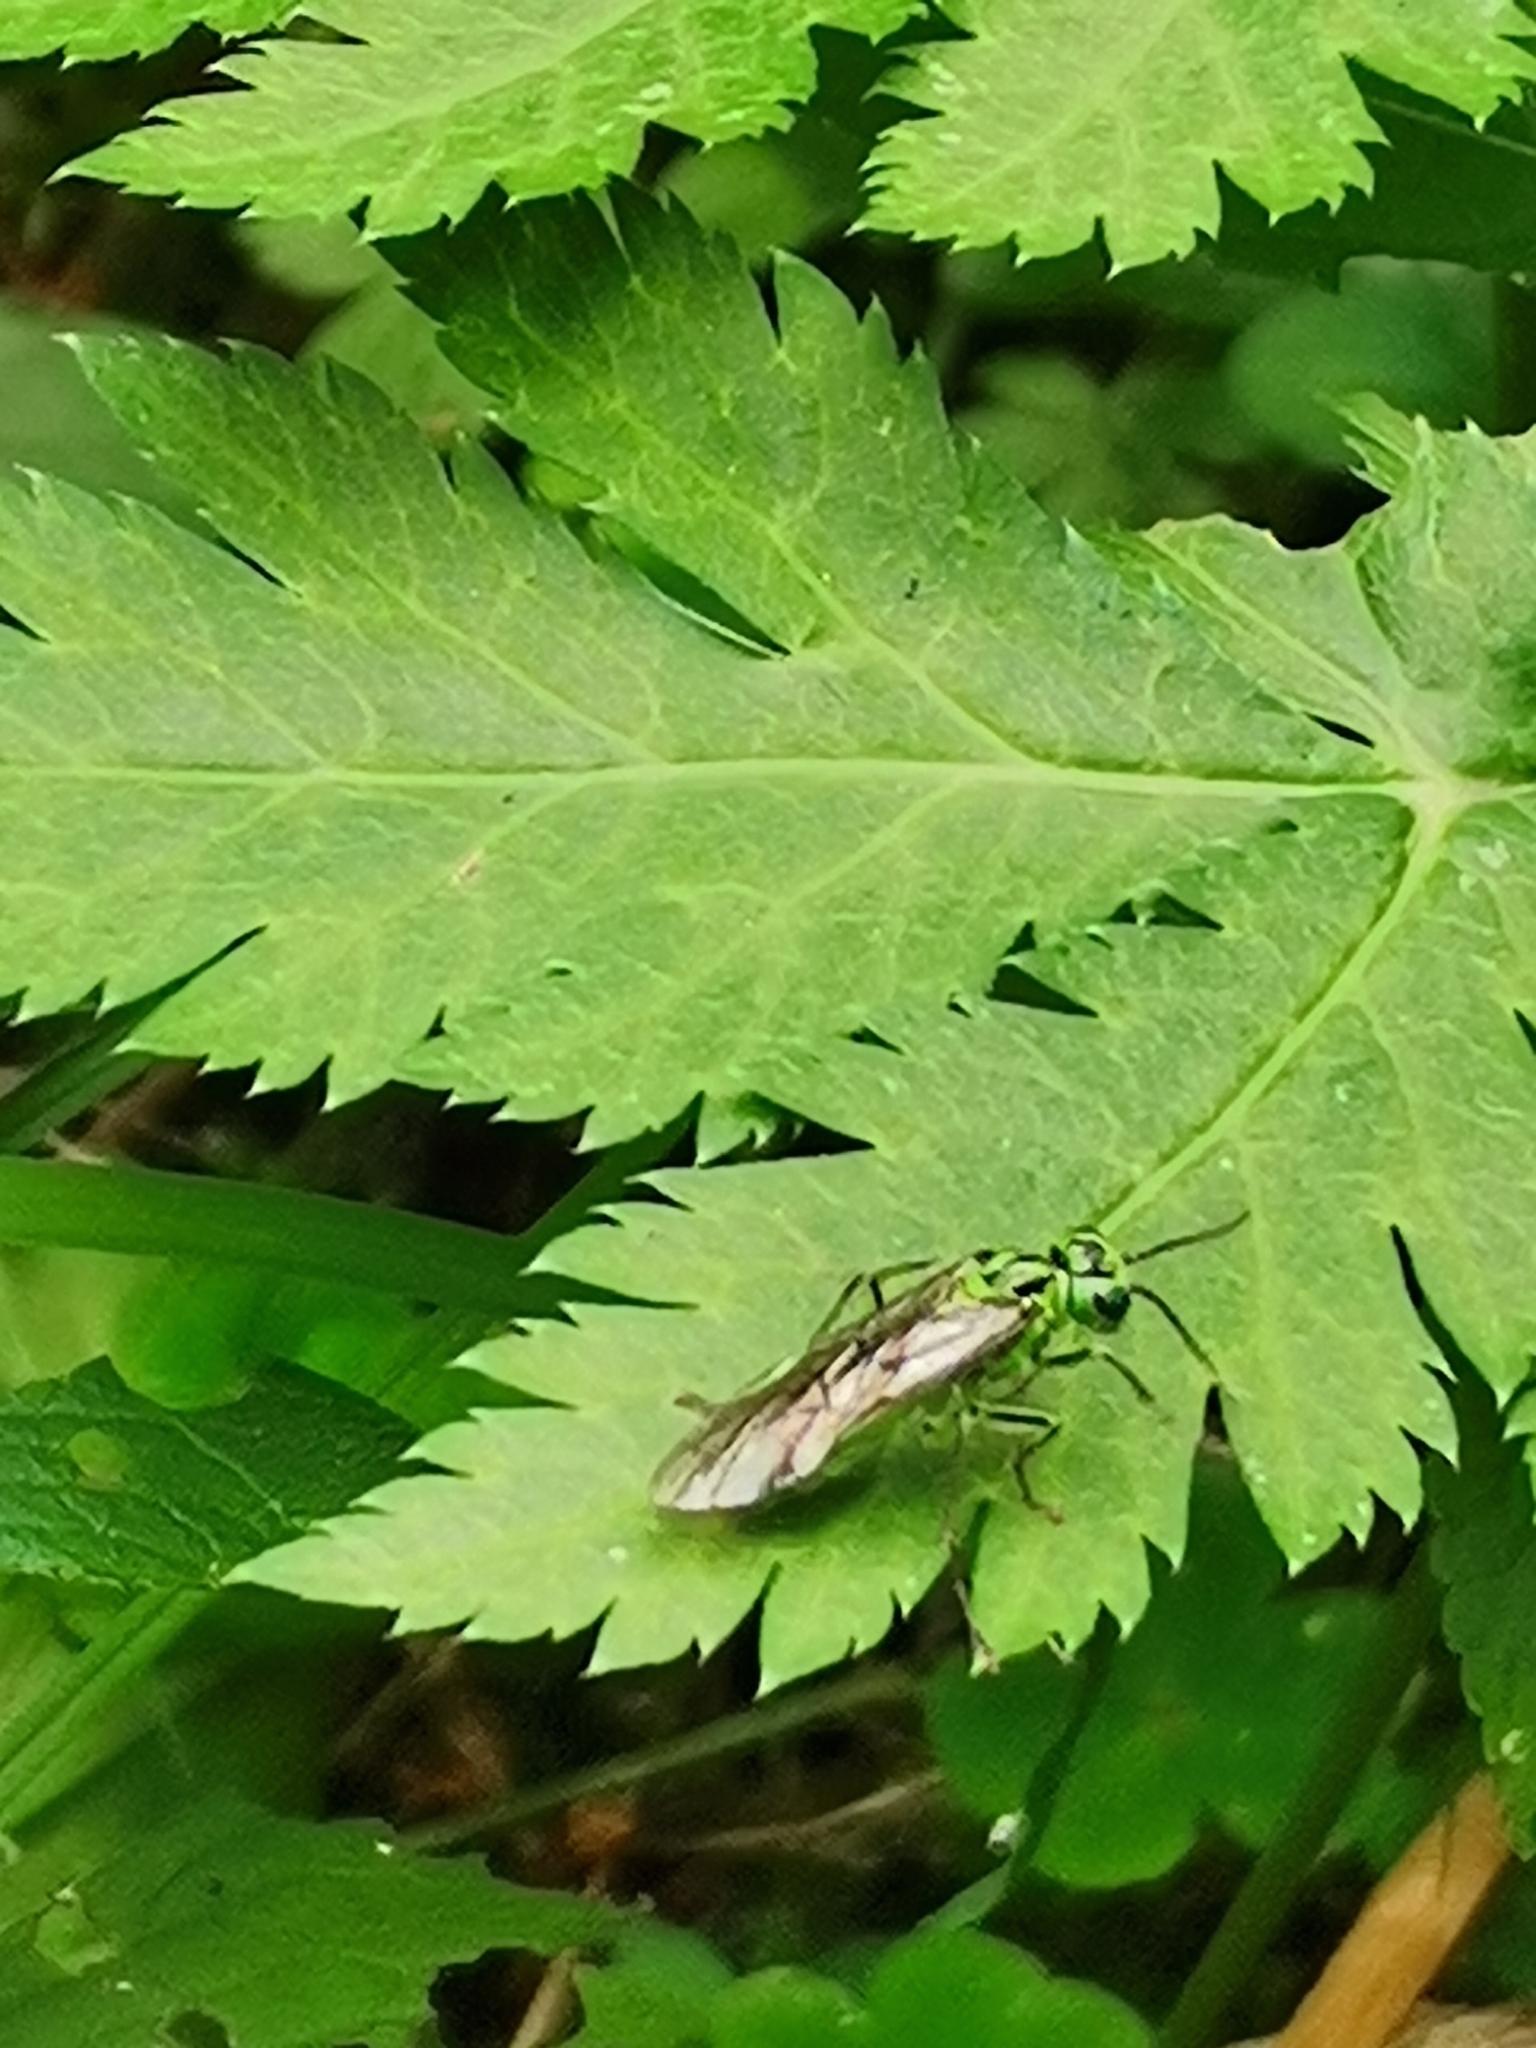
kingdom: Animalia
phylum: Arthropoda
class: Insecta
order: Hymenoptera
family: Tenthredinidae
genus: Tenthredo
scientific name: Tenthredo olivacea
